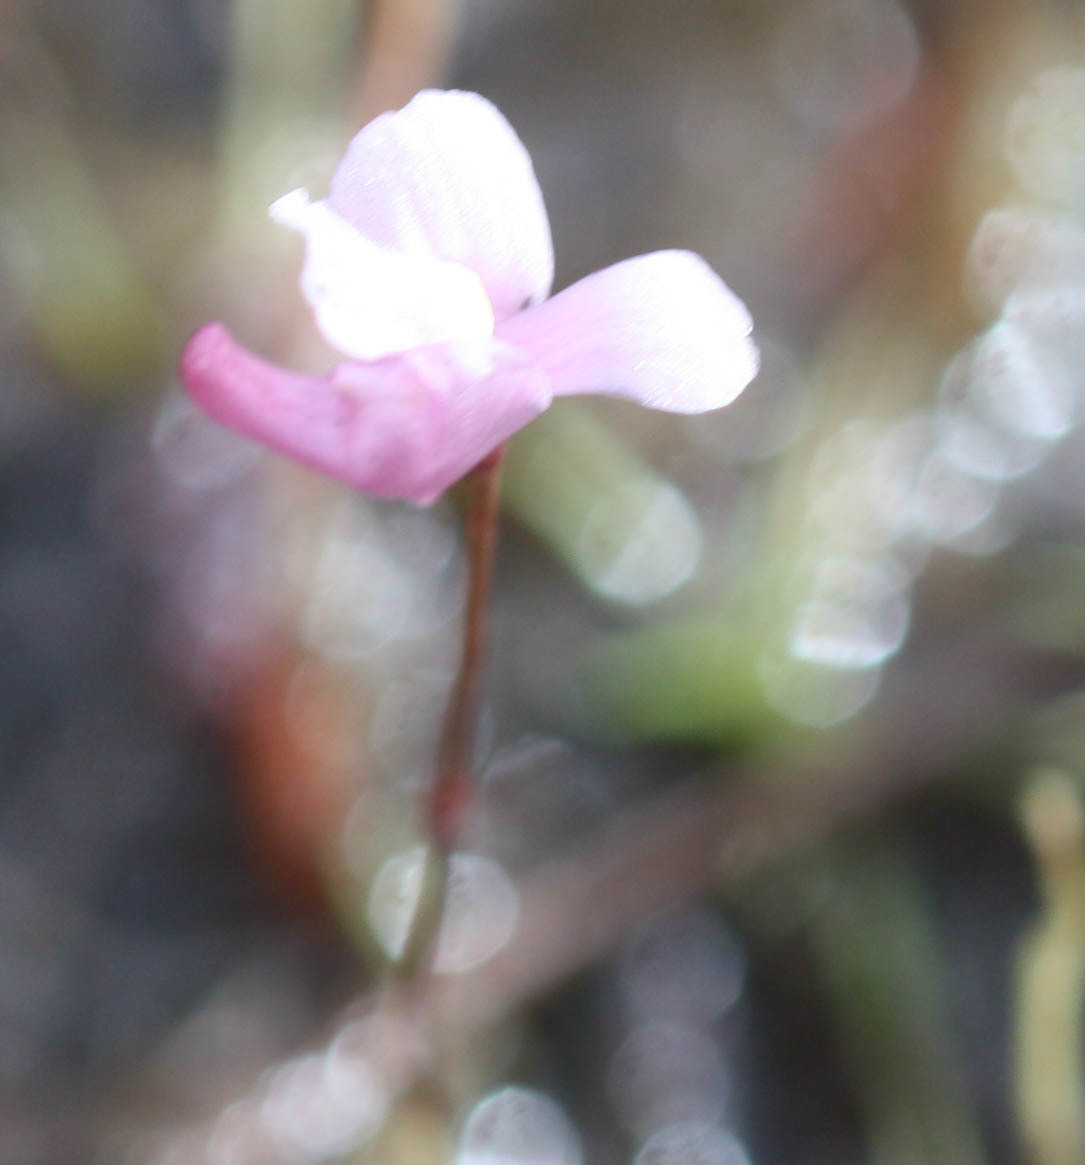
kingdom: Plantae
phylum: Tracheophyta
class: Magnoliopsida
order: Lamiales
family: Lentibulariaceae
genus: Utricularia
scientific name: Utricularia resupinata
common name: Northeastern bladderwort
